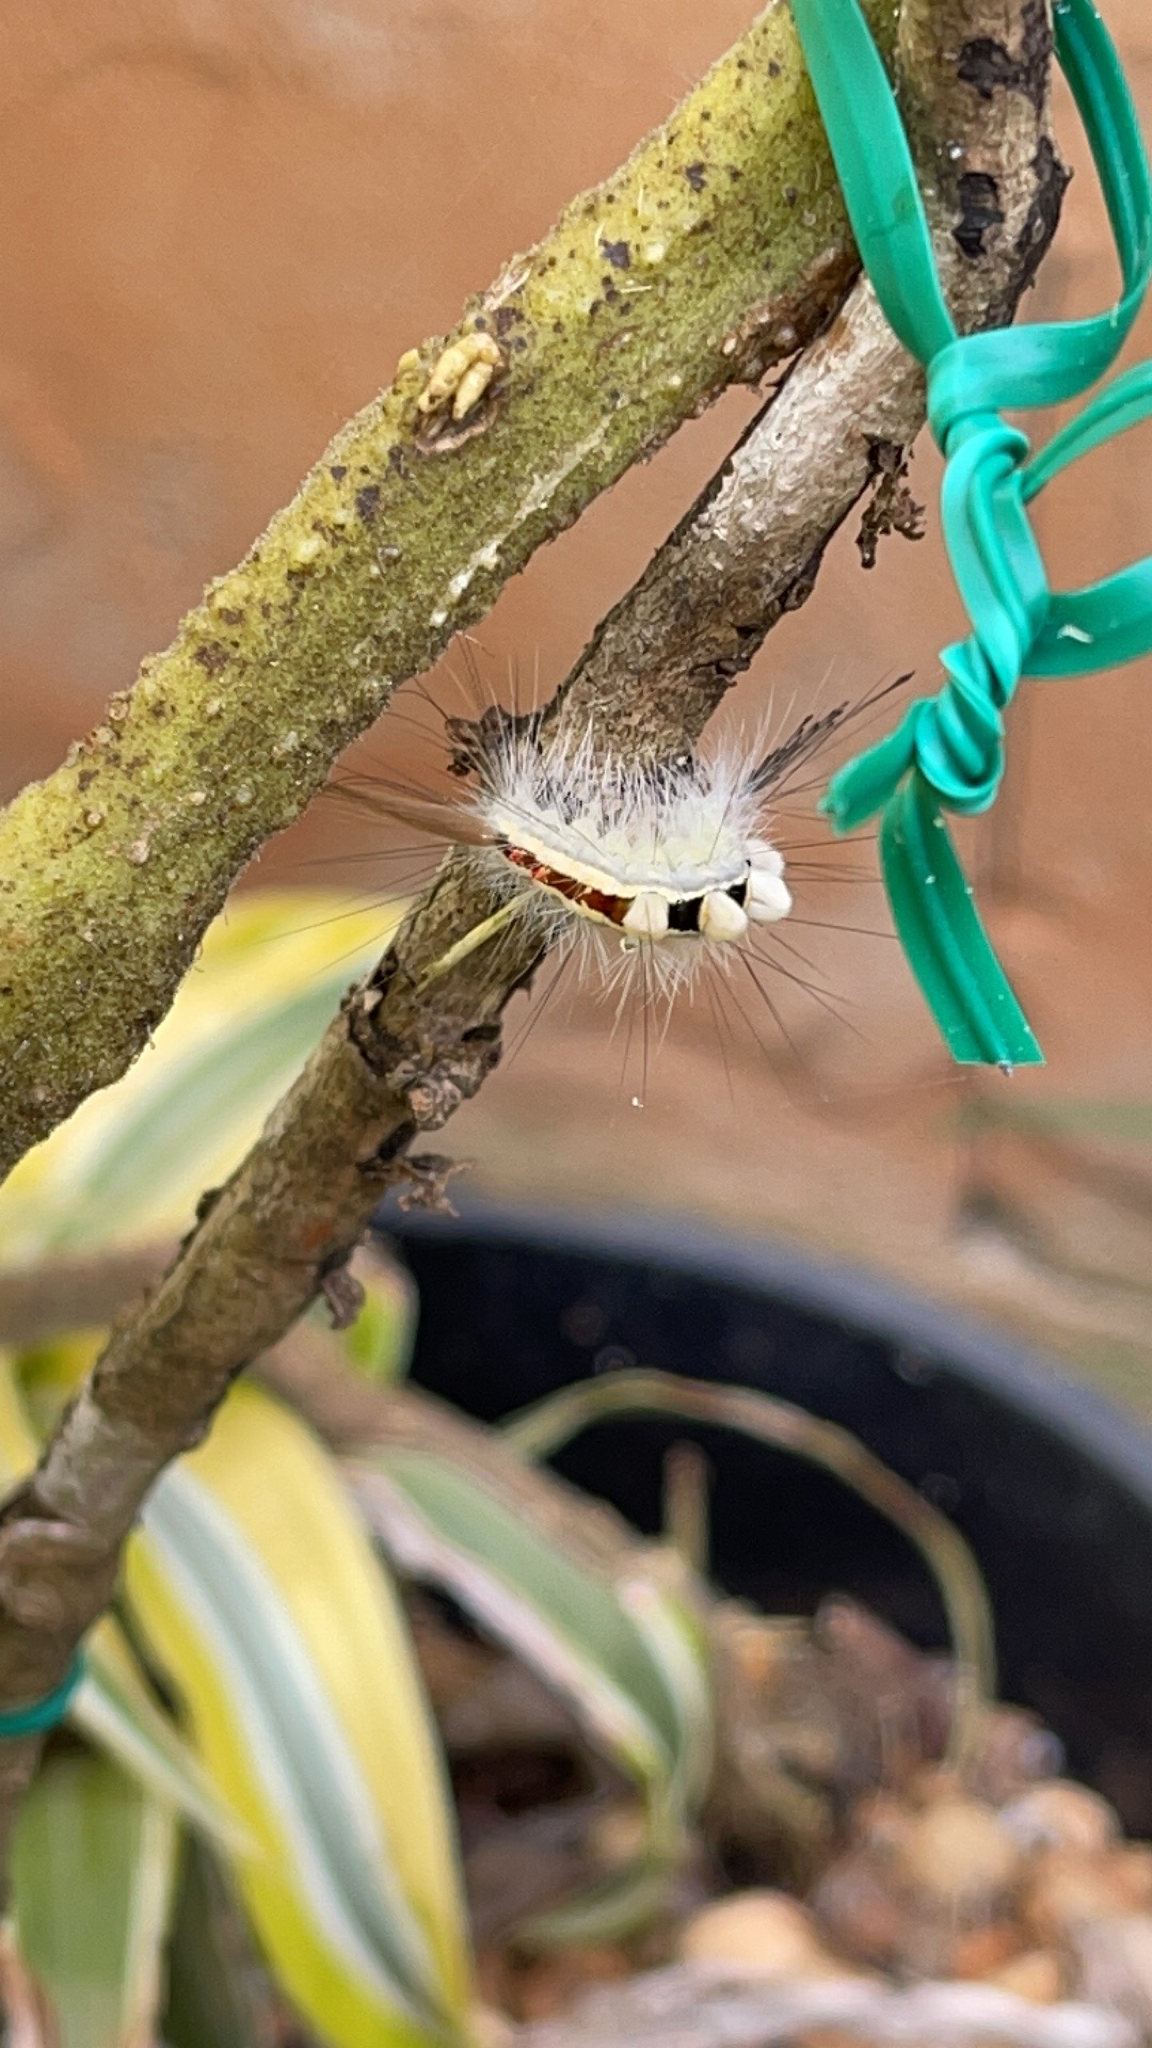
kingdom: Animalia
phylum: Arthropoda
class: Insecta
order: Lepidoptera
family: Erebidae
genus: Orgyia
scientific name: Orgyia leucostigma
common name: White-marked tussock moth
